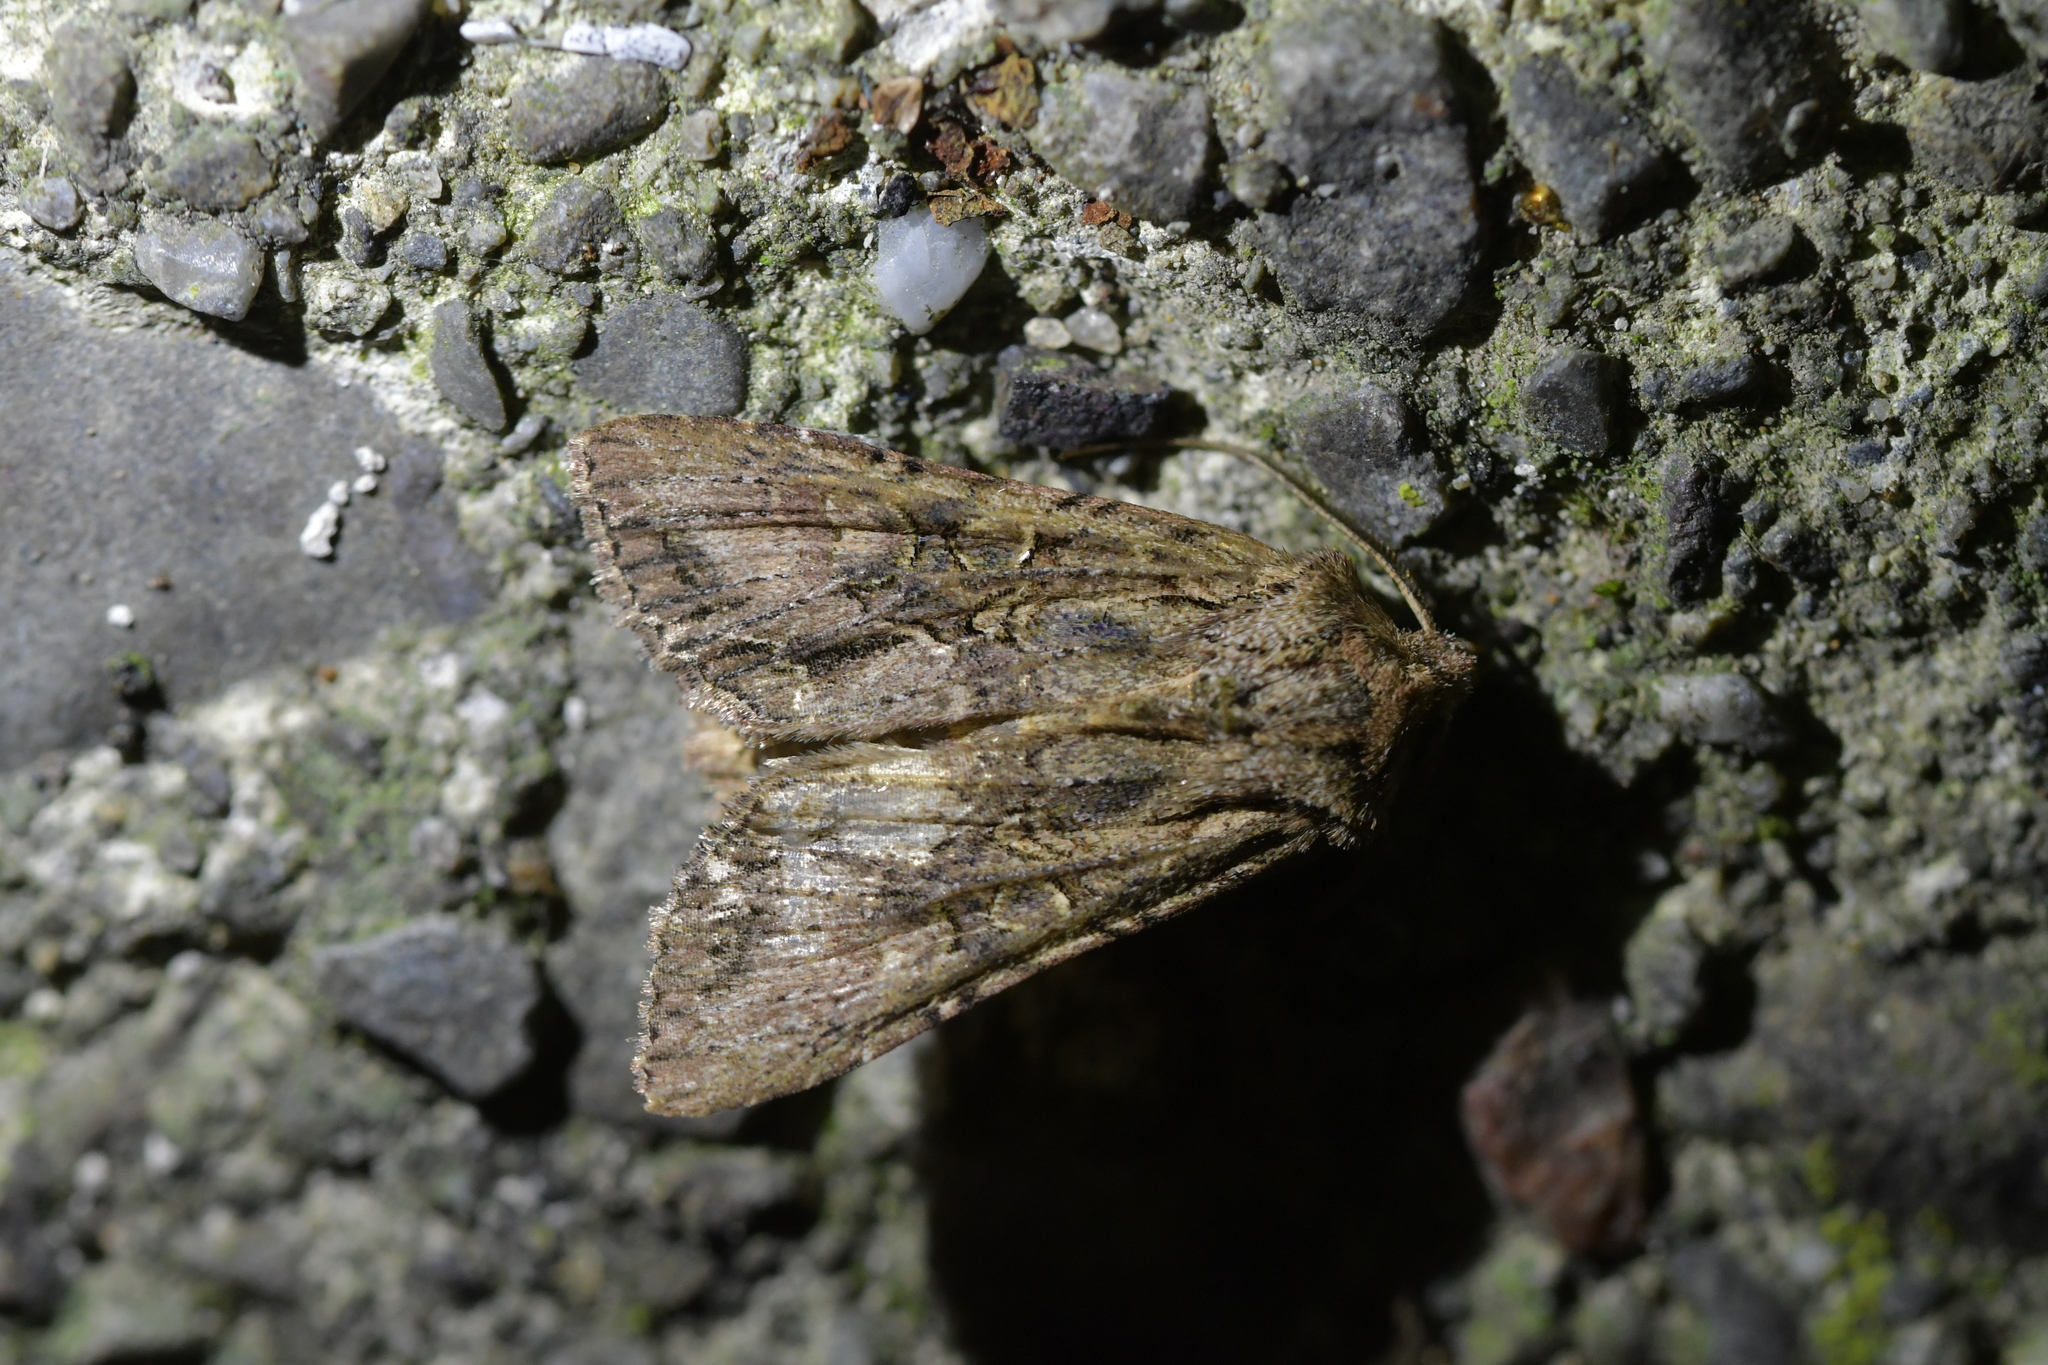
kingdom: Animalia
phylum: Arthropoda
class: Insecta
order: Lepidoptera
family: Noctuidae
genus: Ichneutica
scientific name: Ichneutica mutans
